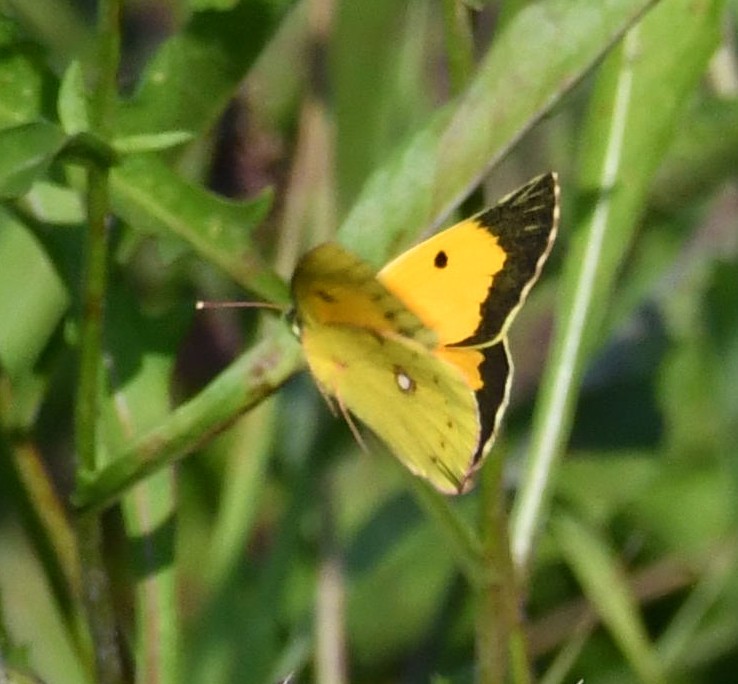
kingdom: Animalia
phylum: Arthropoda
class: Insecta
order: Lepidoptera
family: Pieridae
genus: Colias
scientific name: Colias croceus
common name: Clouded yellow
